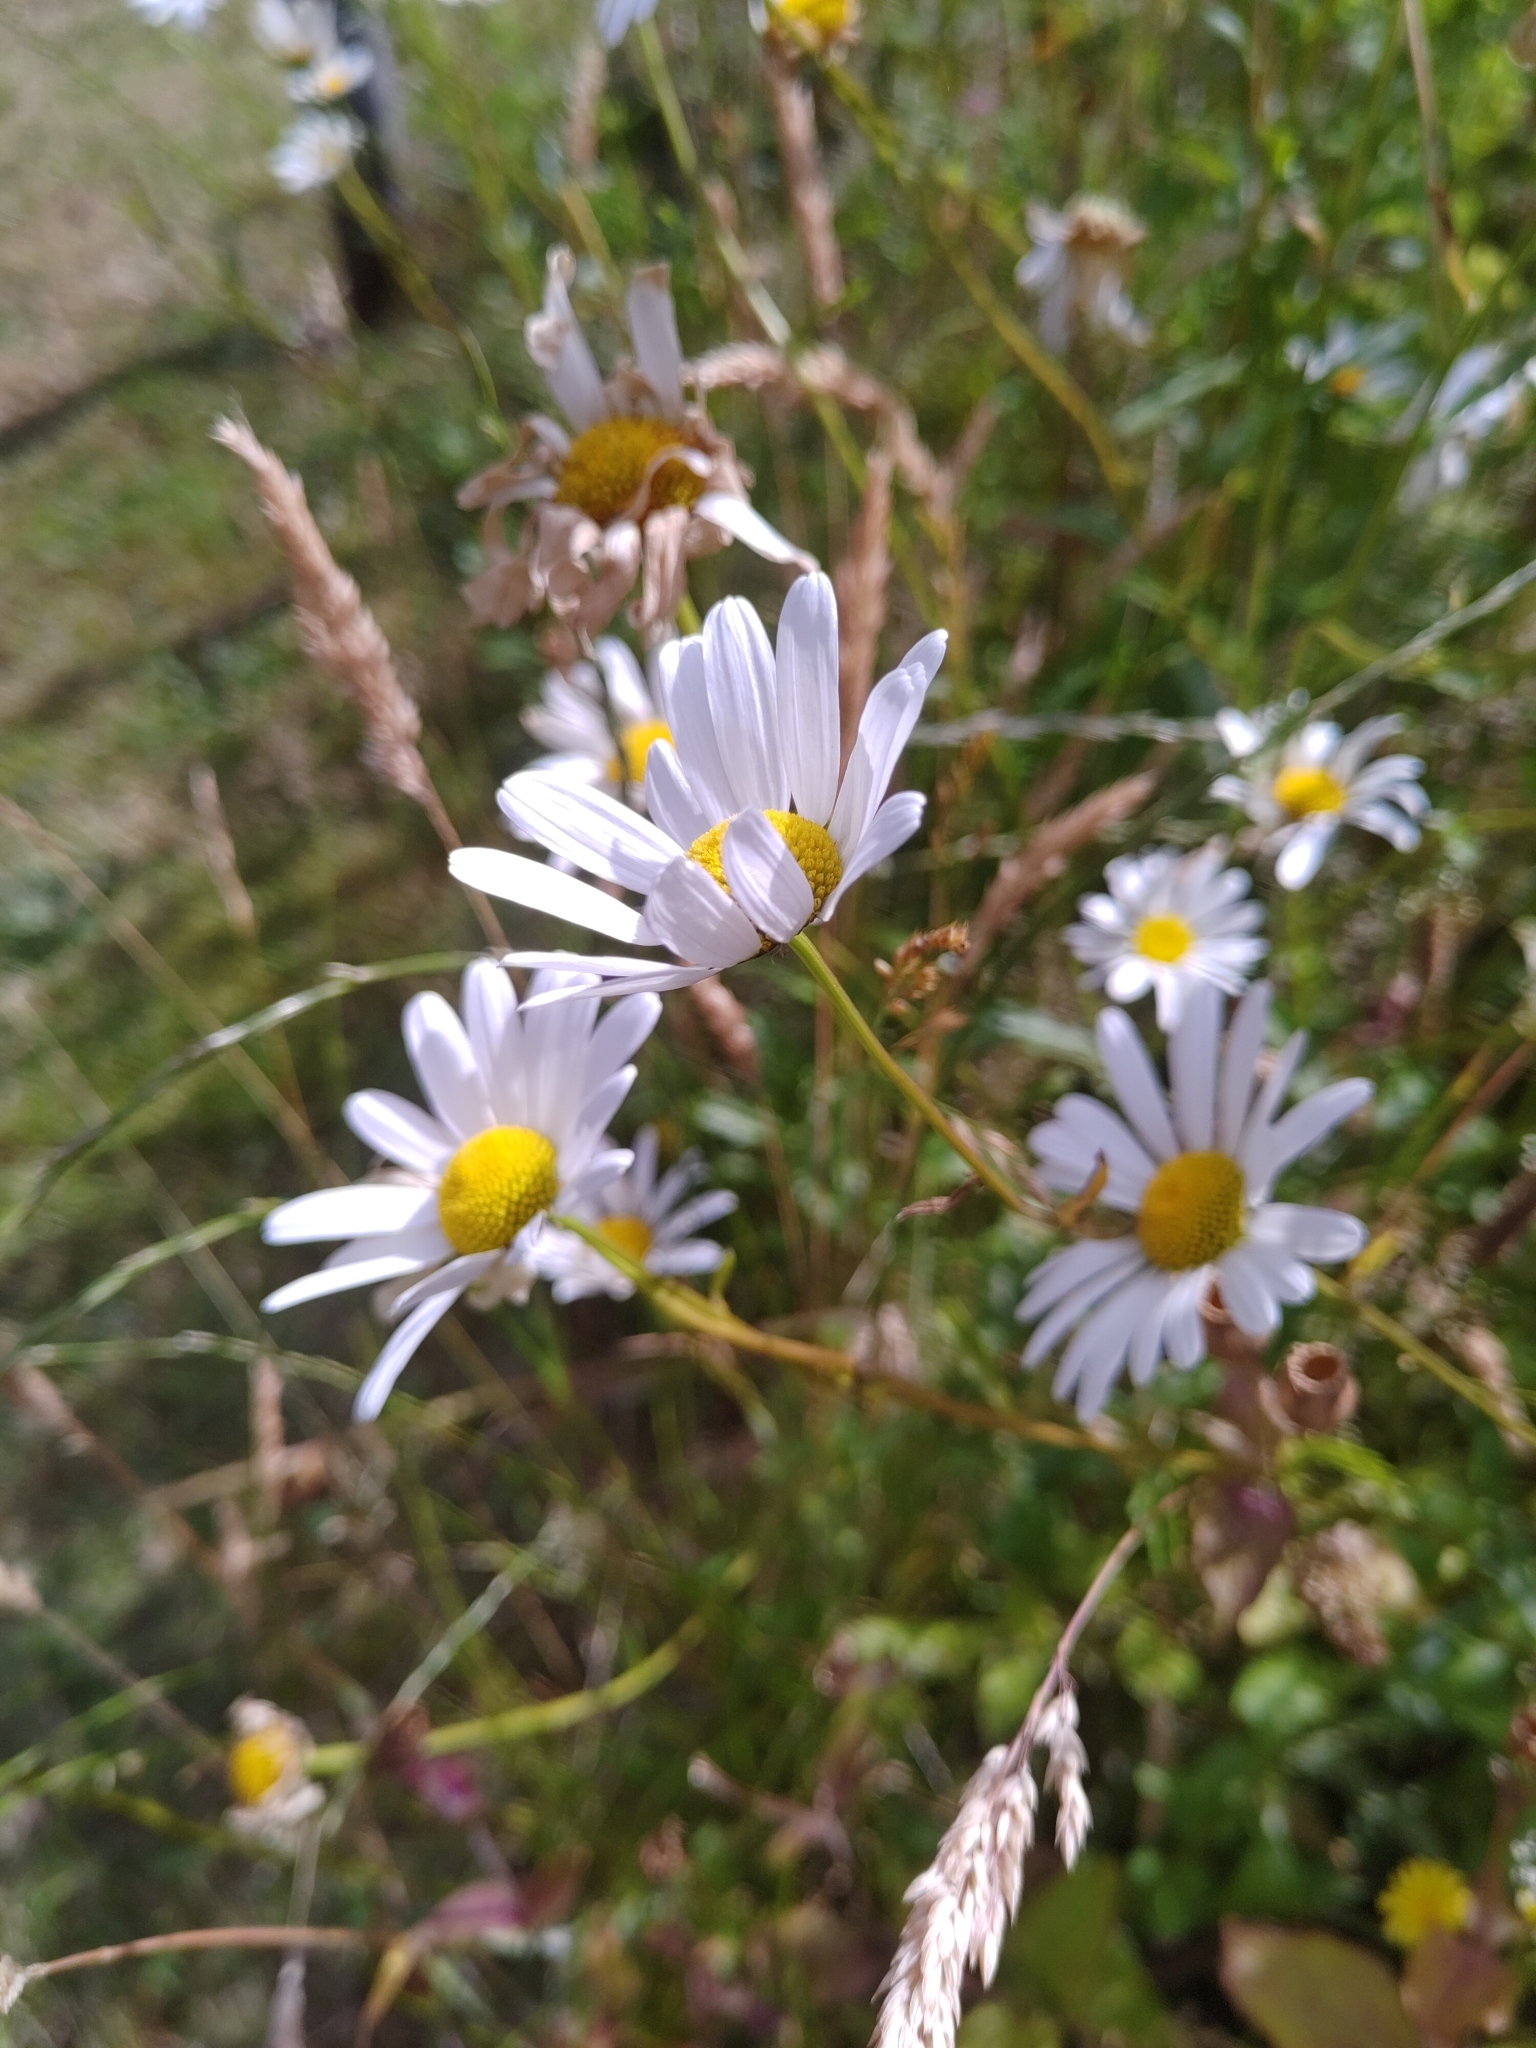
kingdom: Plantae
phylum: Tracheophyta
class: Magnoliopsida
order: Asterales
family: Asteraceae
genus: Leucanthemum
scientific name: Leucanthemum vulgare
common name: Oxeye daisy
